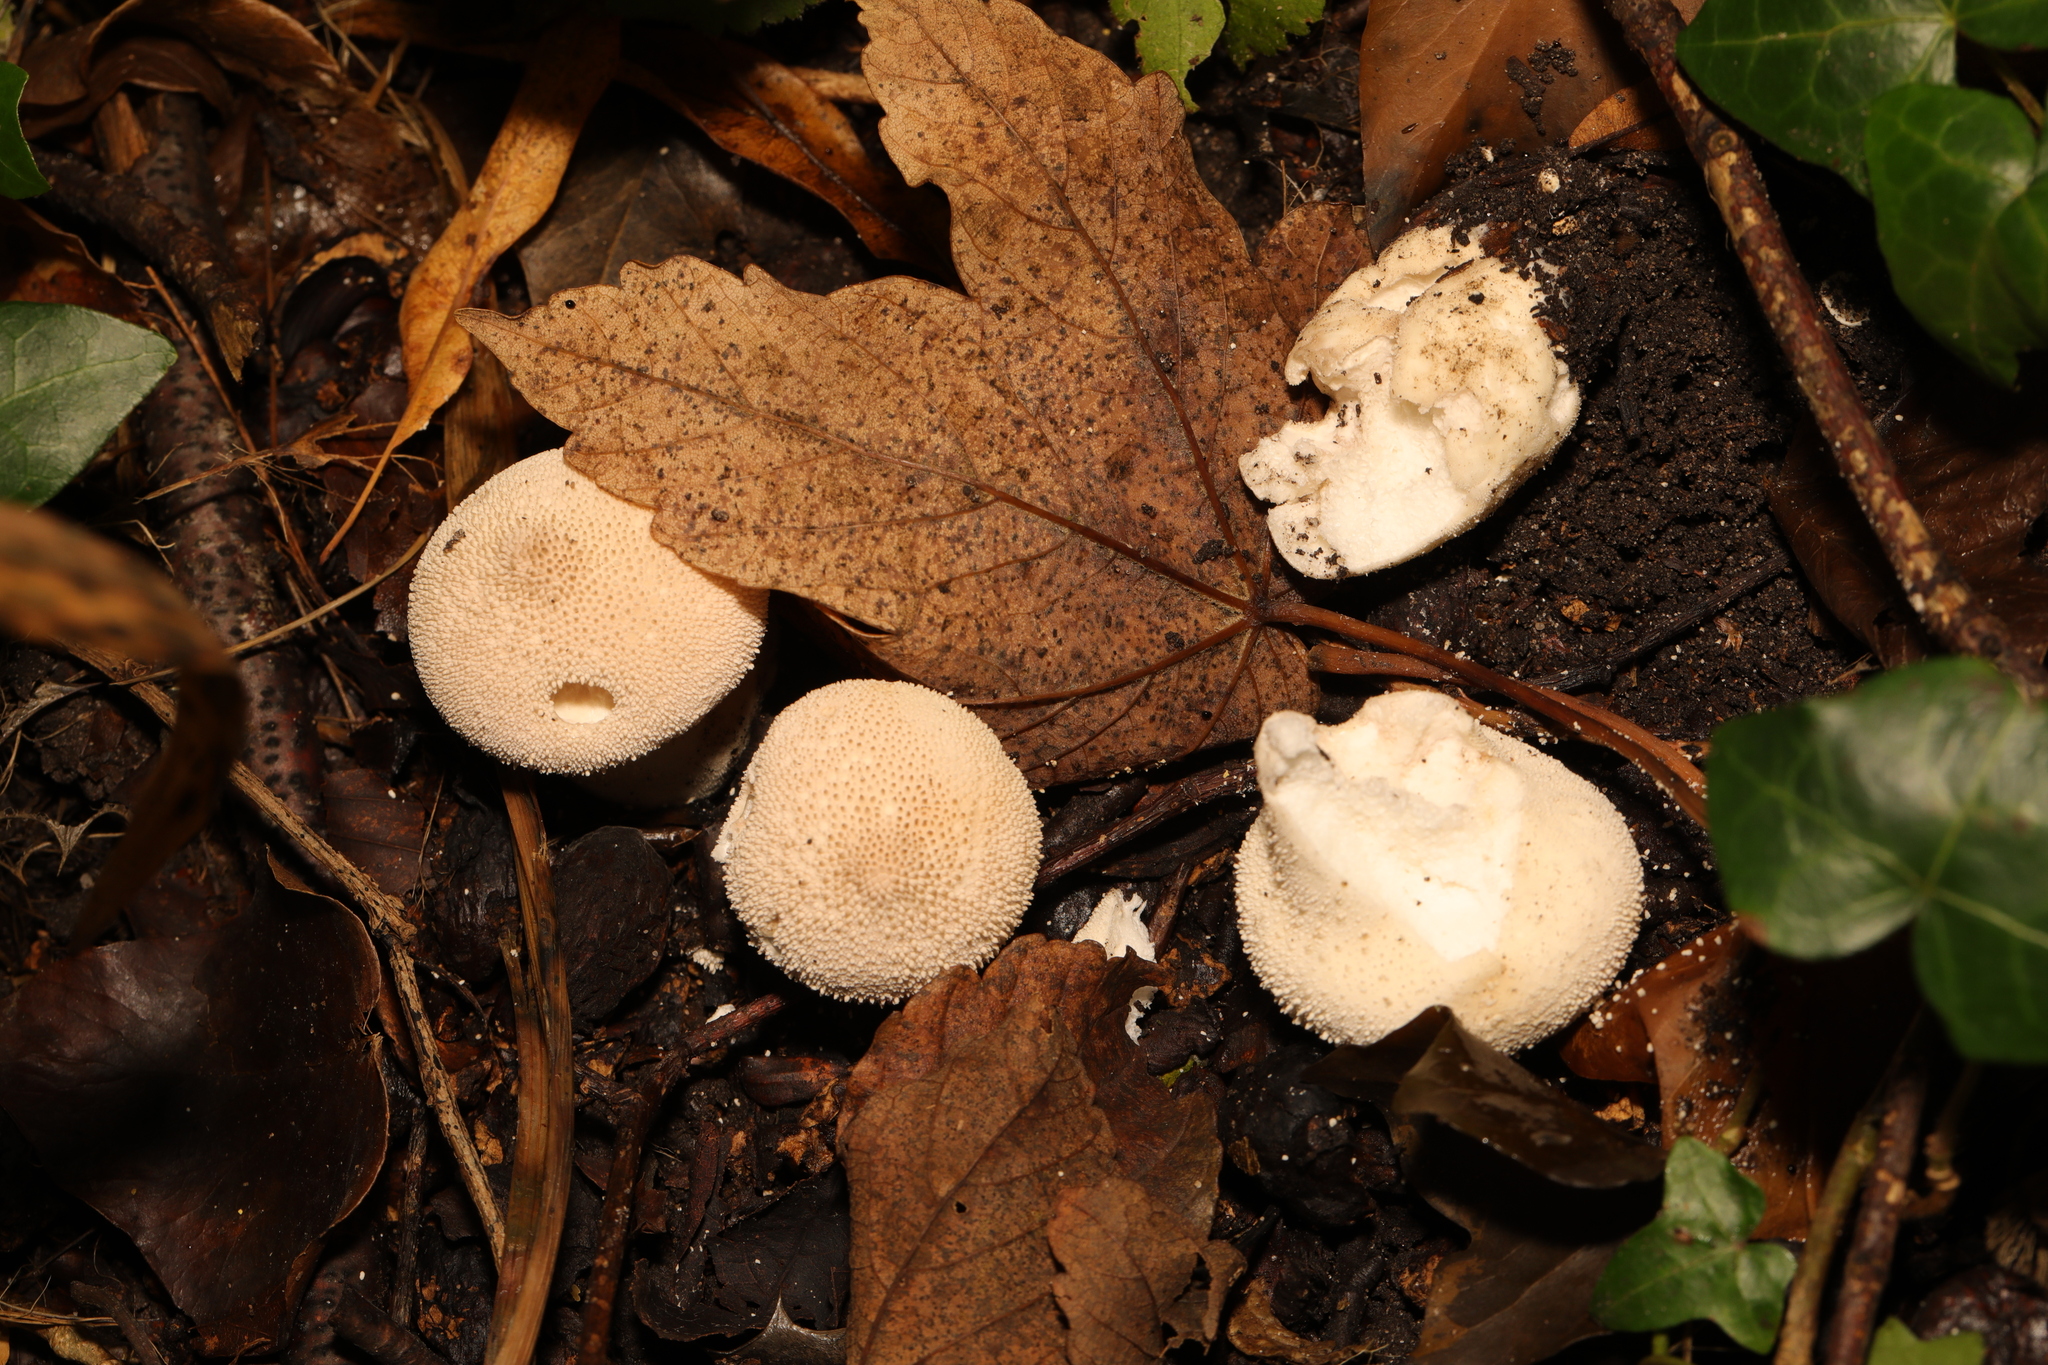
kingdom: Fungi
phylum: Basidiomycota
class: Agaricomycetes
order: Agaricales
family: Lycoperdaceae
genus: Lycoperdon
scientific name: Lycoperdon perlatum
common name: Common puffball
